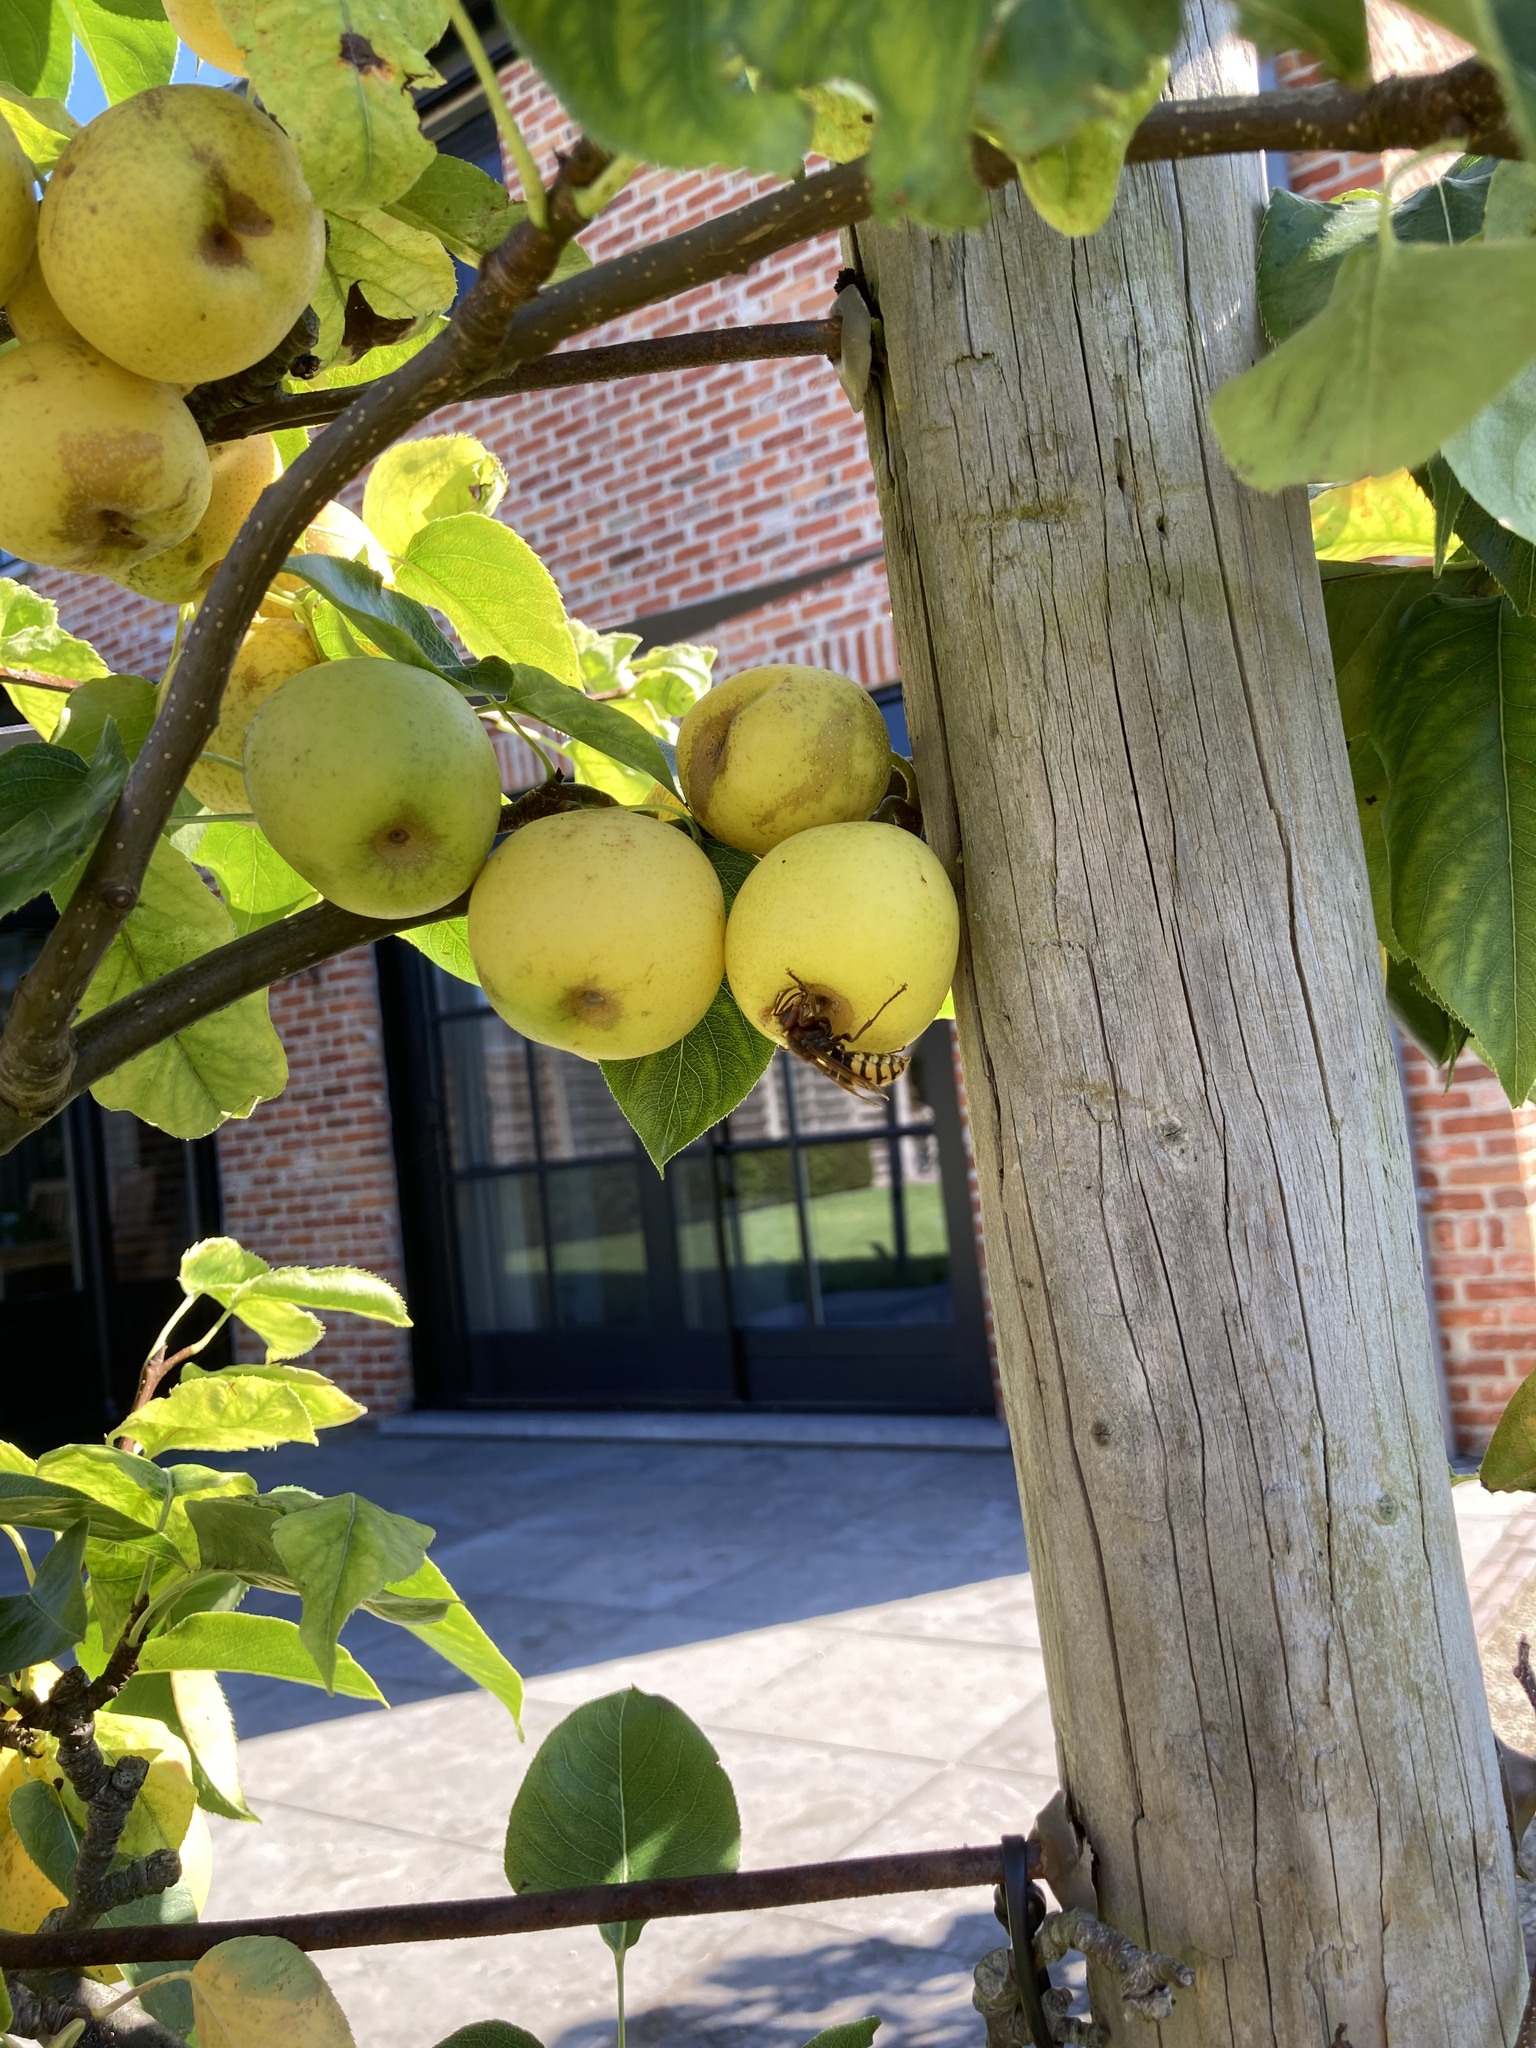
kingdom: Animalia
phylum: Arthropoda
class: Insecta
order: Hymenoptera
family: Vespidae
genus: Vespa
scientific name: Vespa crabro
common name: Hornet
